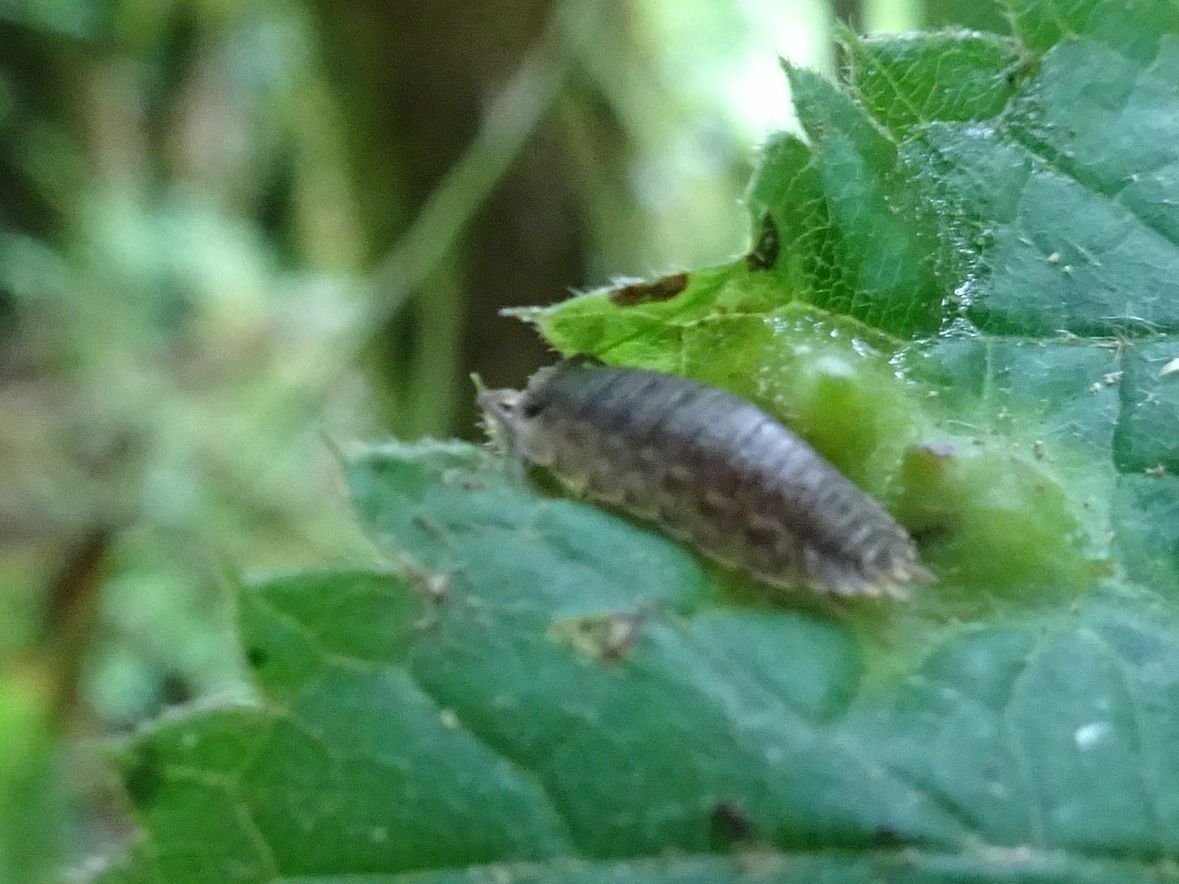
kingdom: Animalia
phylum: Arthropoda
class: Malacostraca
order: Isopoda
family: Porcellionidae
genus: Porcellio
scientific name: Porcellio scaber
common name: Common rough woodlouse
